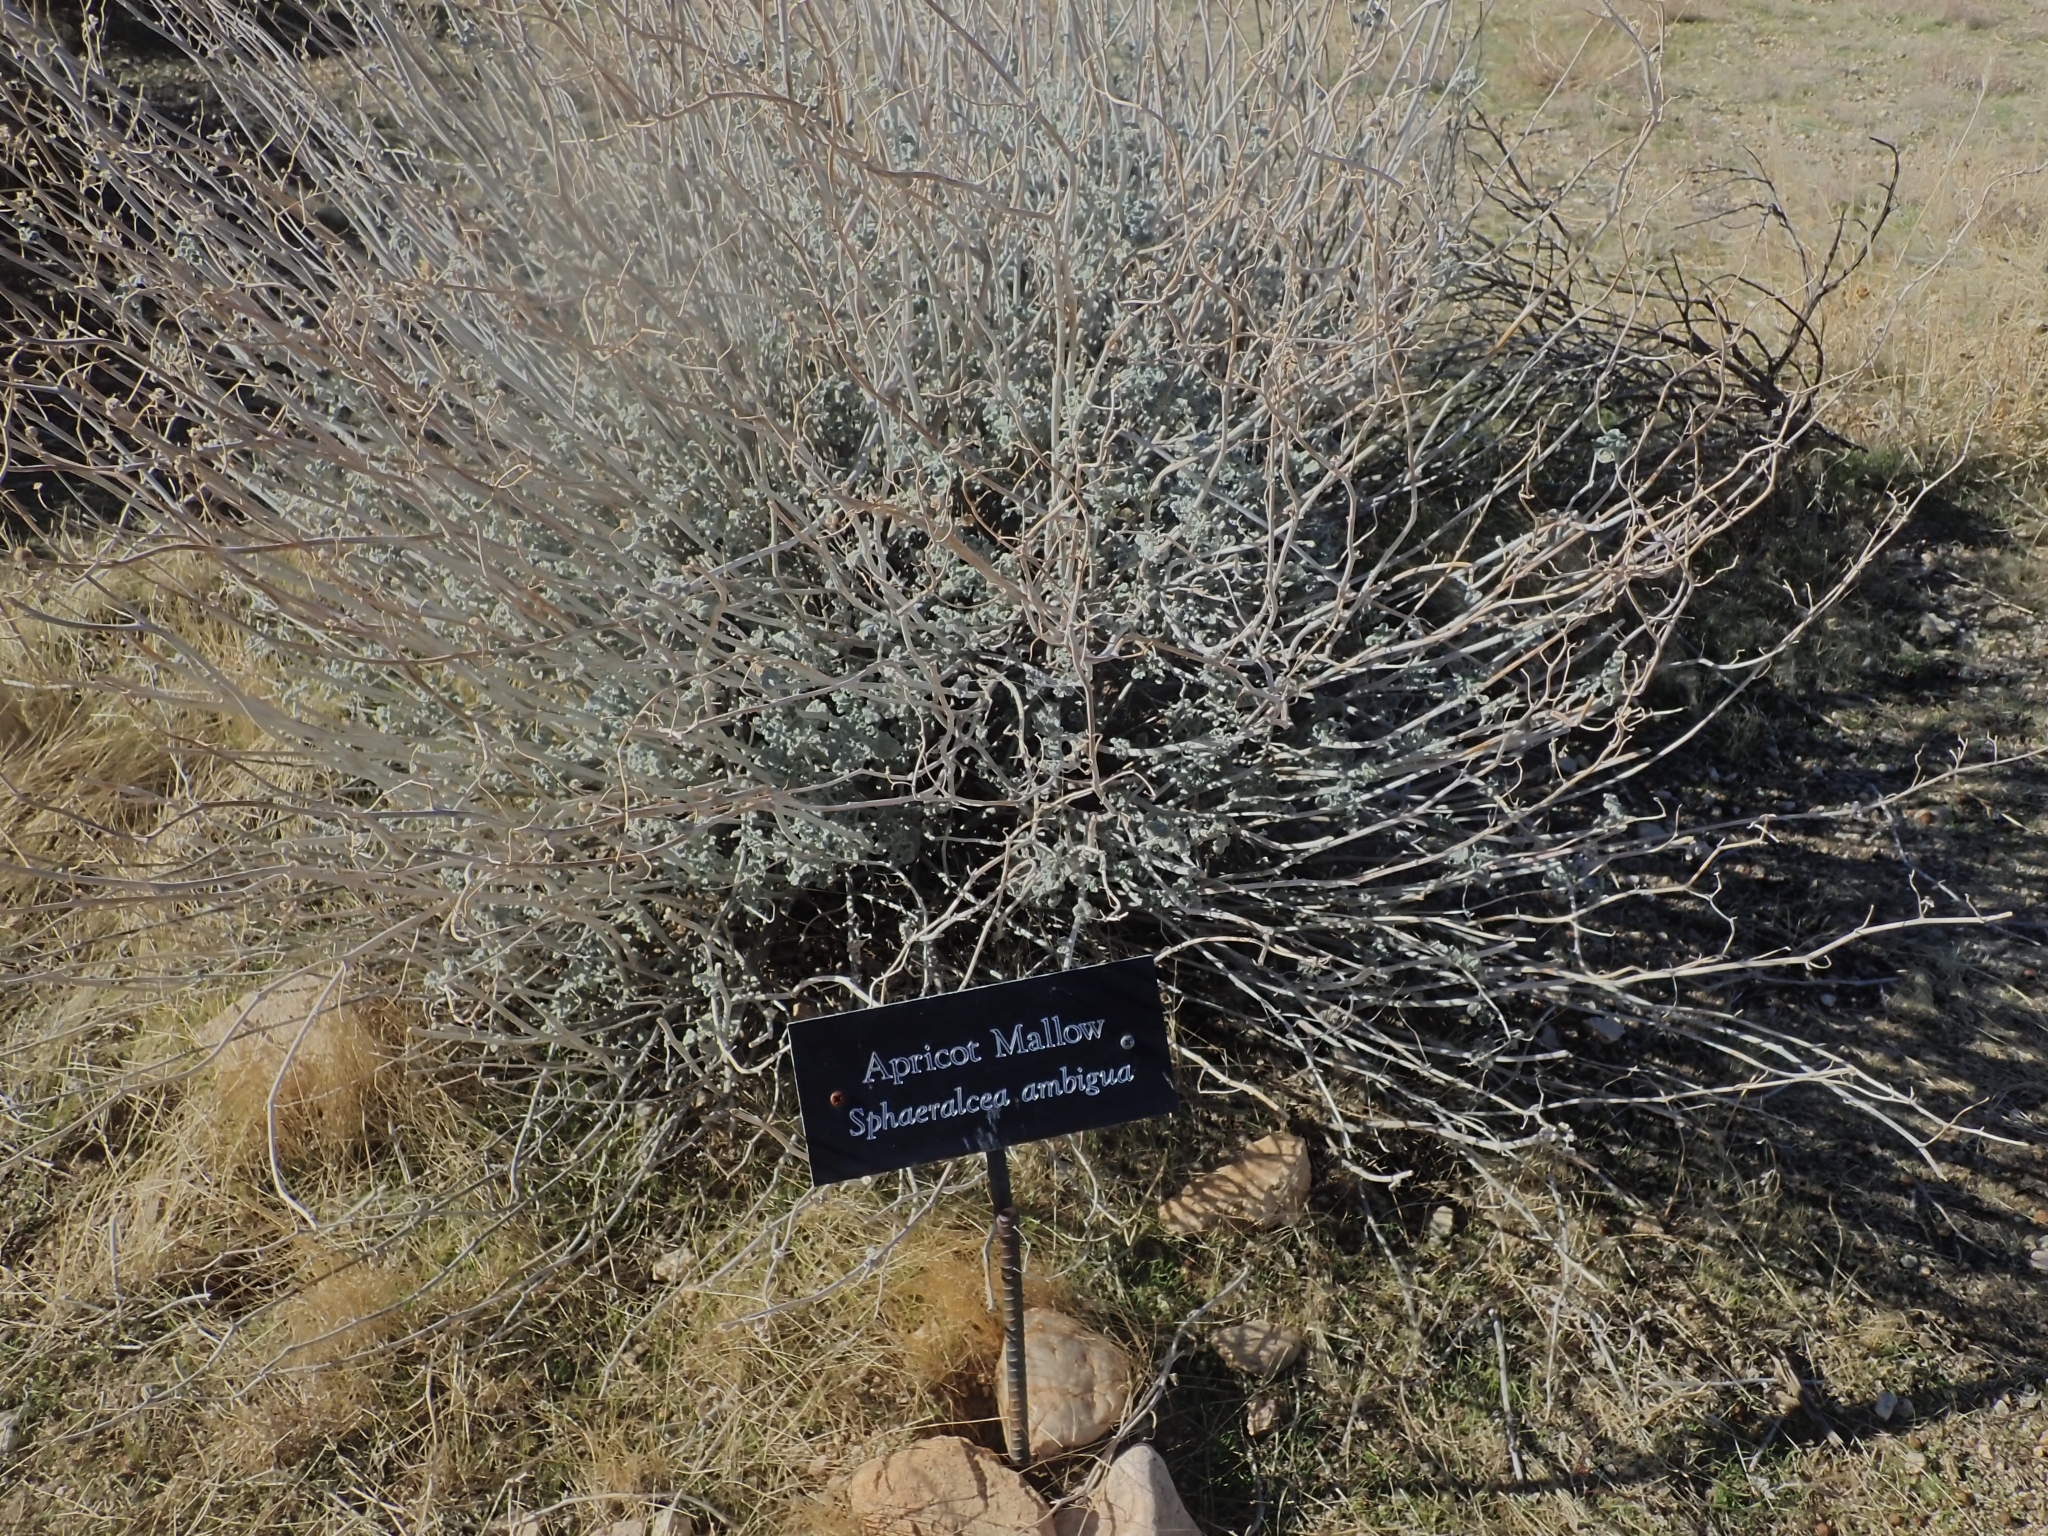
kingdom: Plantae
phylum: Tracheophyta
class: Magnoliopsida
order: Malvales
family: Malvaceae
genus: Sphaeralcea
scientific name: Sphaeralcea ambigua
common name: Apricot globe-mallow
